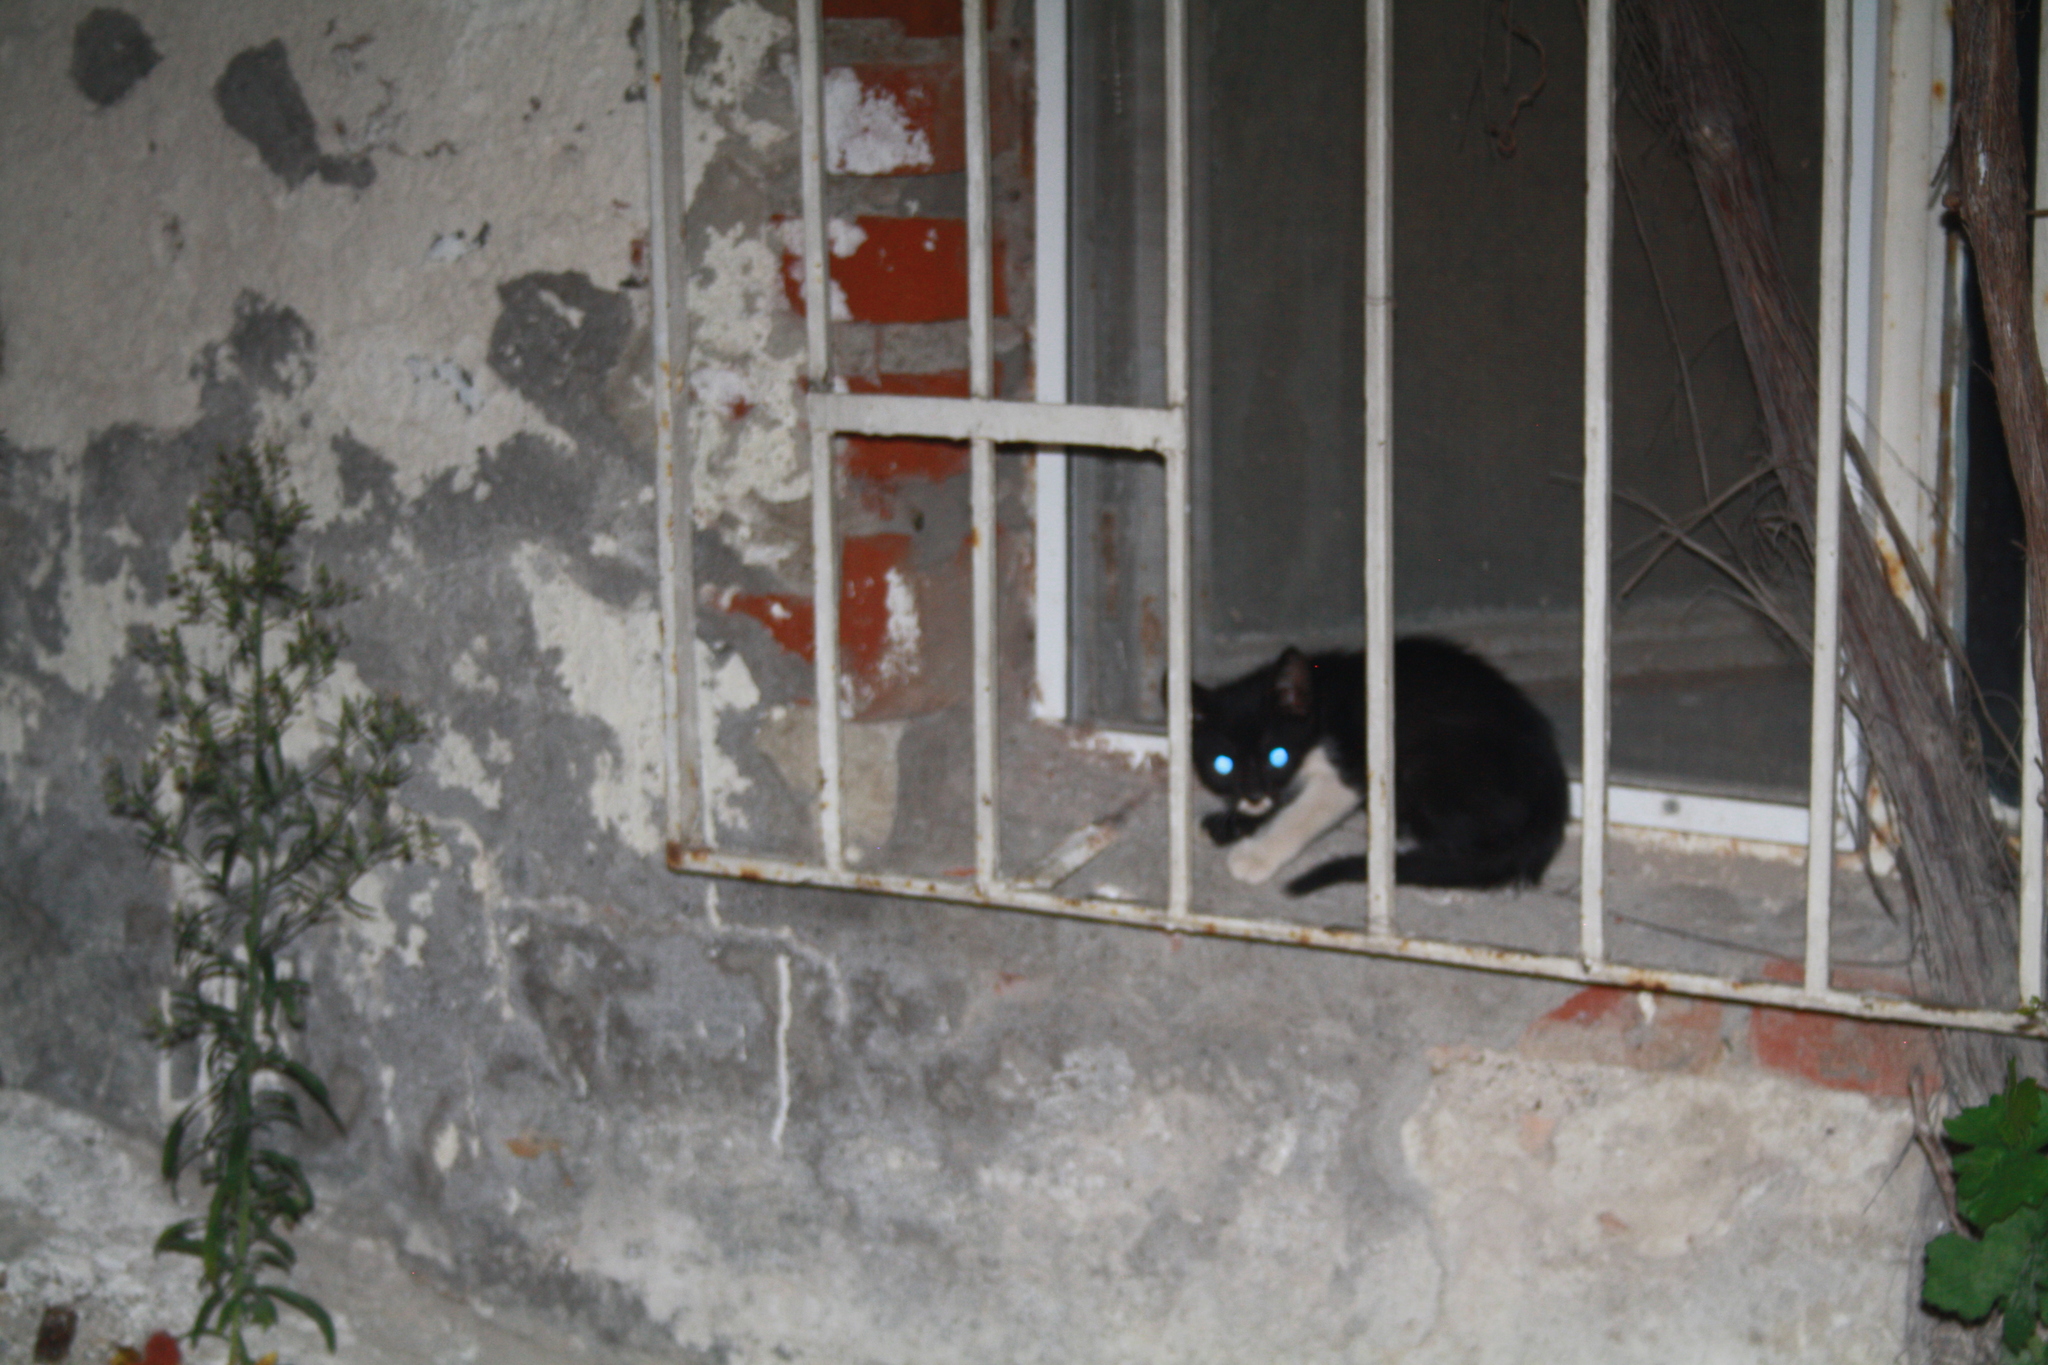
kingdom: Animalia
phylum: Chordata
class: Mammalia
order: Carnivora
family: Felidae
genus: Felis
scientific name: Felis catus
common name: Domestic cat
